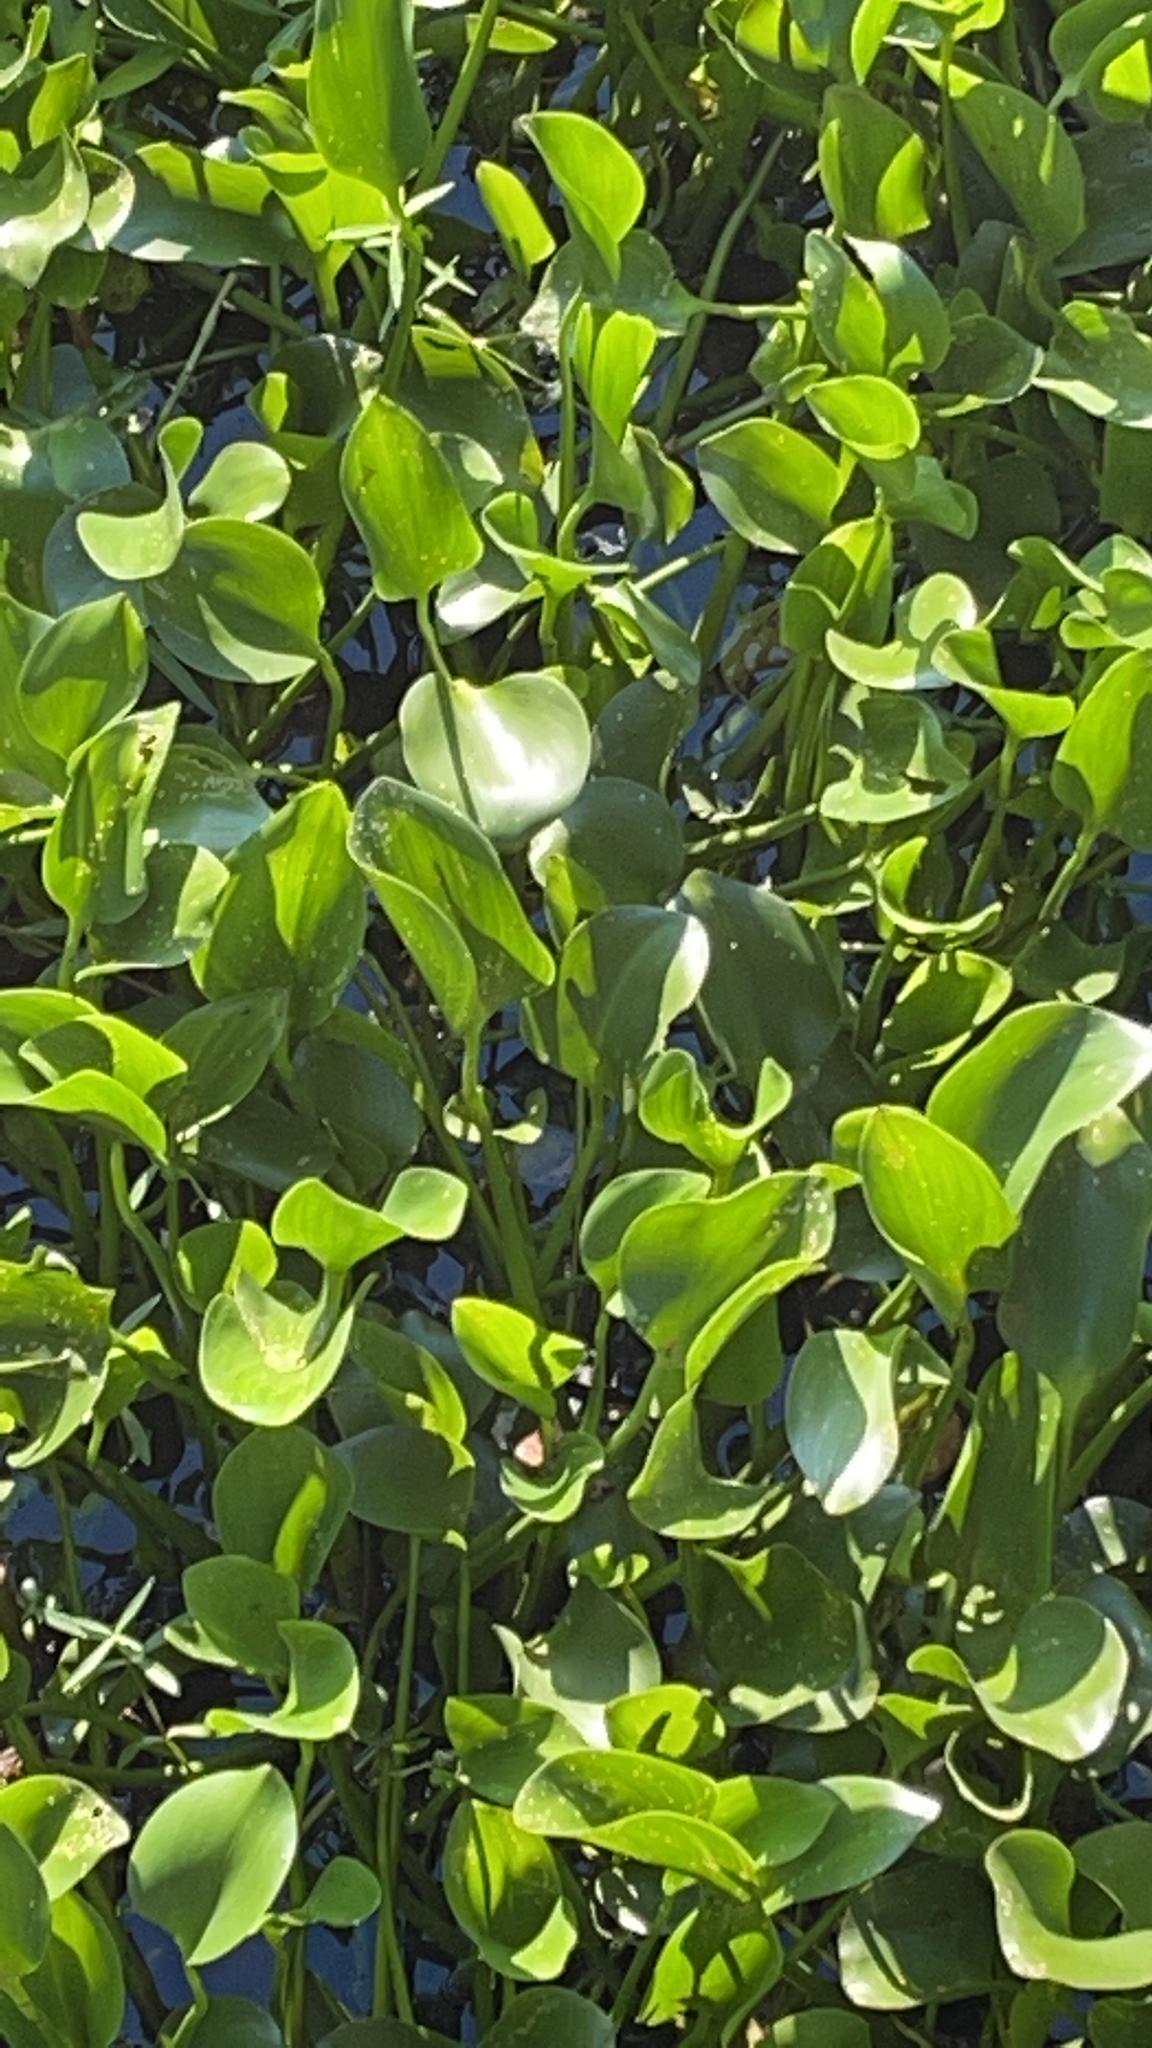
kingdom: Plantae
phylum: Tracheophyta
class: Liliopsida
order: Commelinales
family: Pontederiaceae
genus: Pontederia
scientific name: Pontederia crassipes
